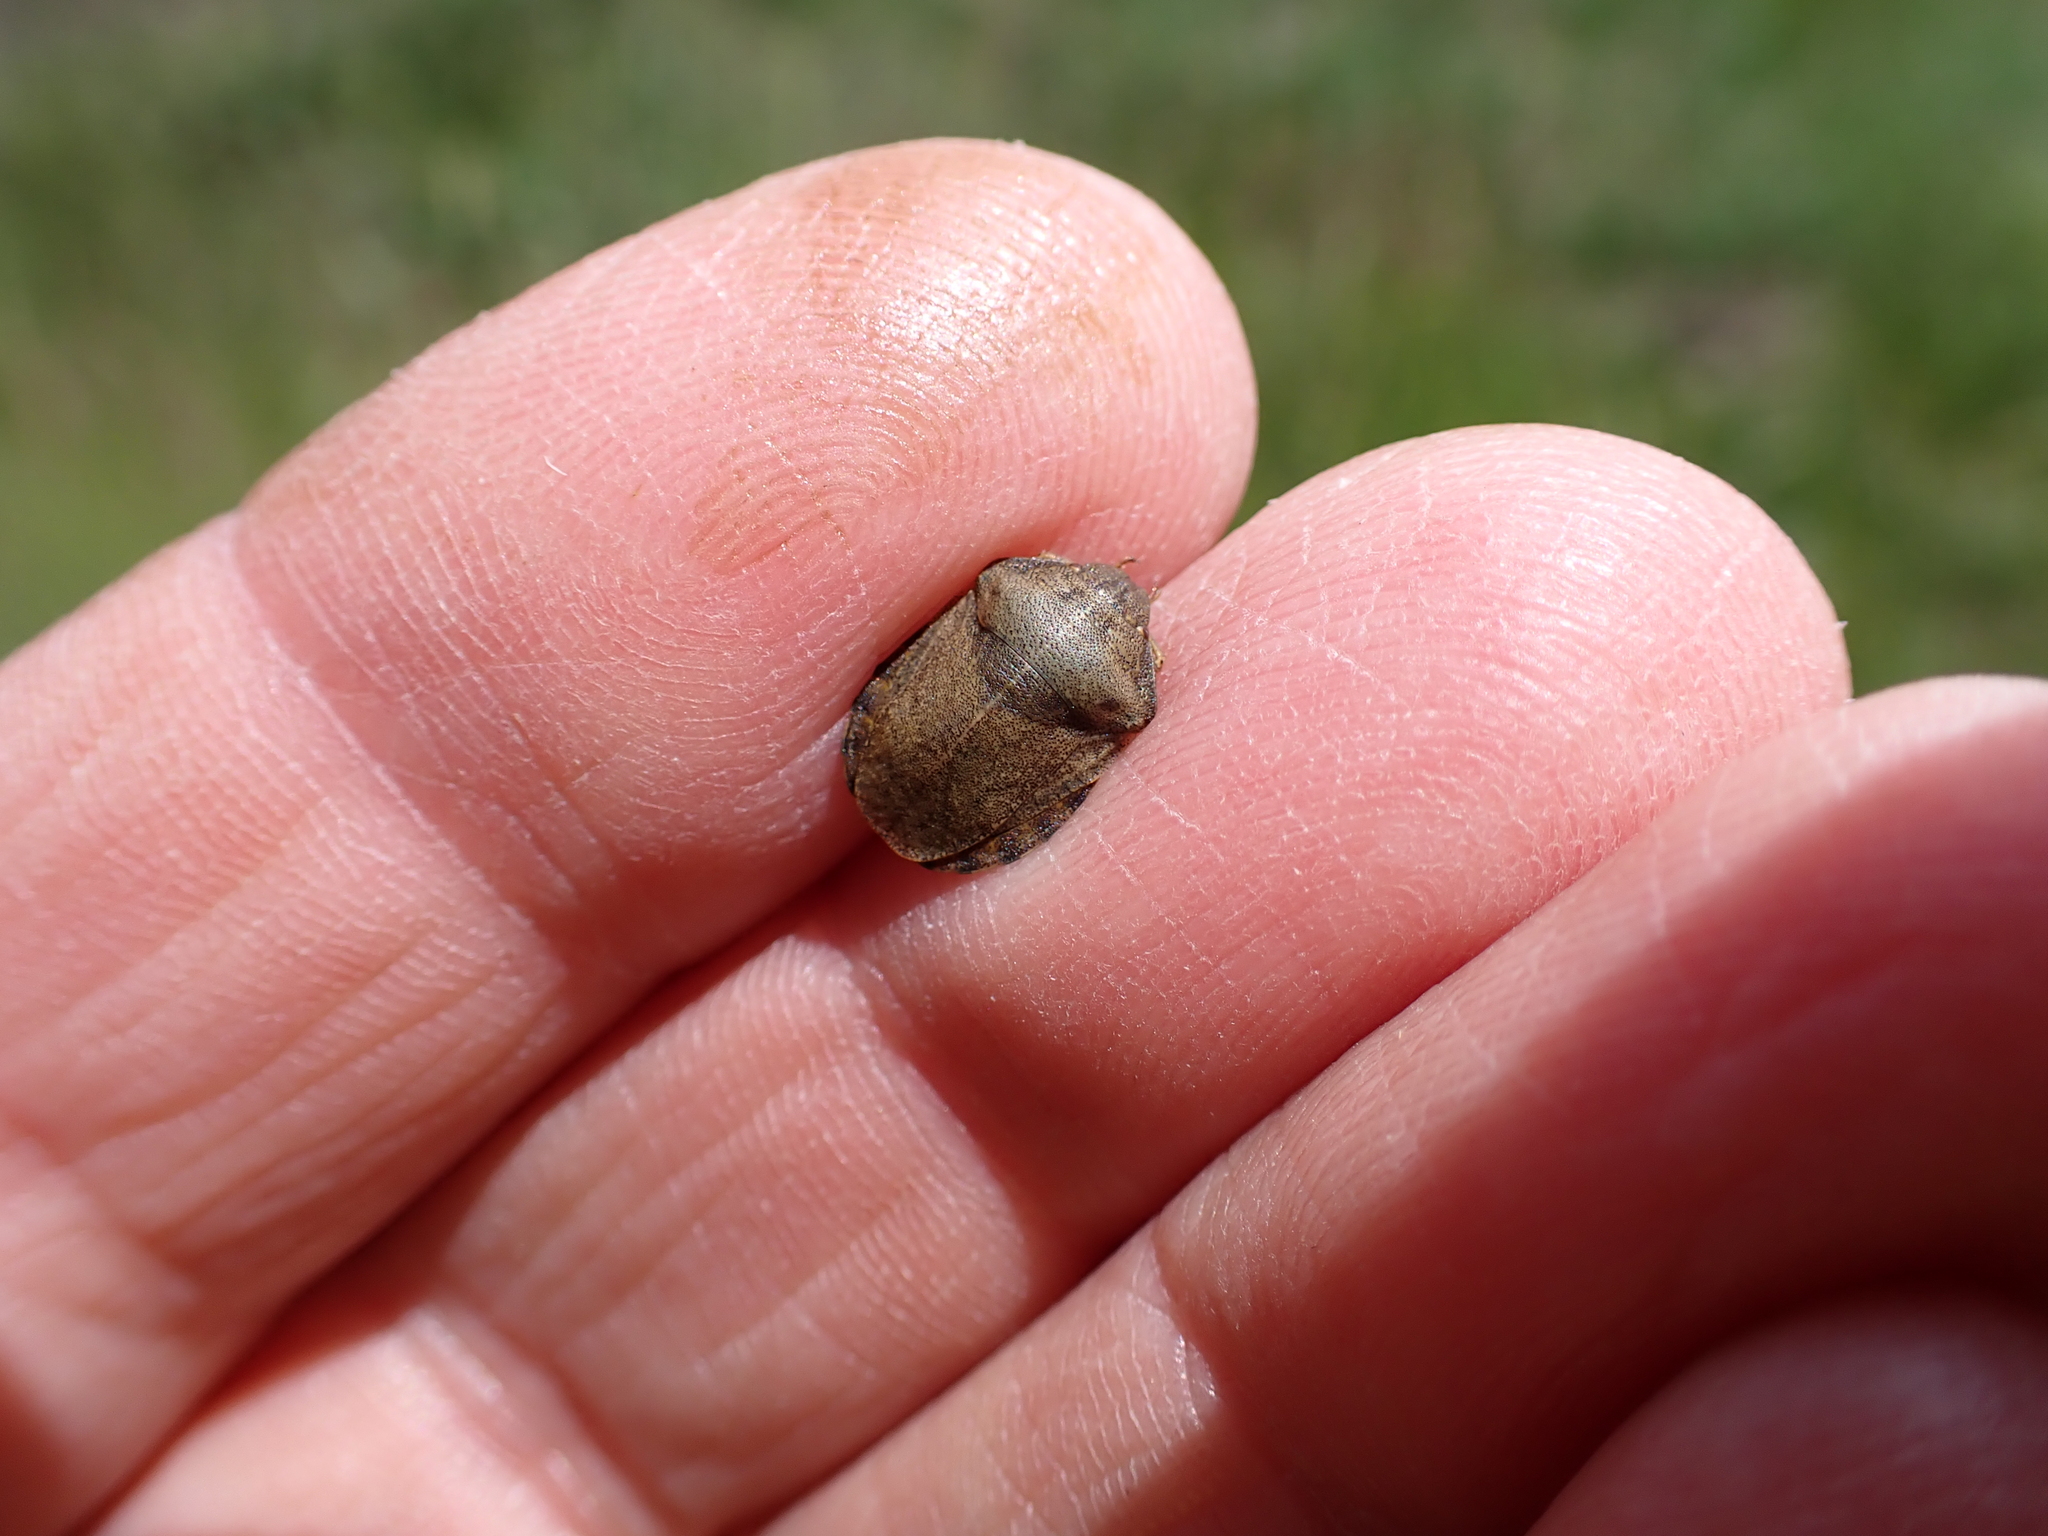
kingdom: Animalia
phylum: Arthropoda
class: Insecta
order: Hemiptera
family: Scutelleridae
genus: Eurygaster
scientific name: Eurygaster testudinaria
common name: Tortoise bug
